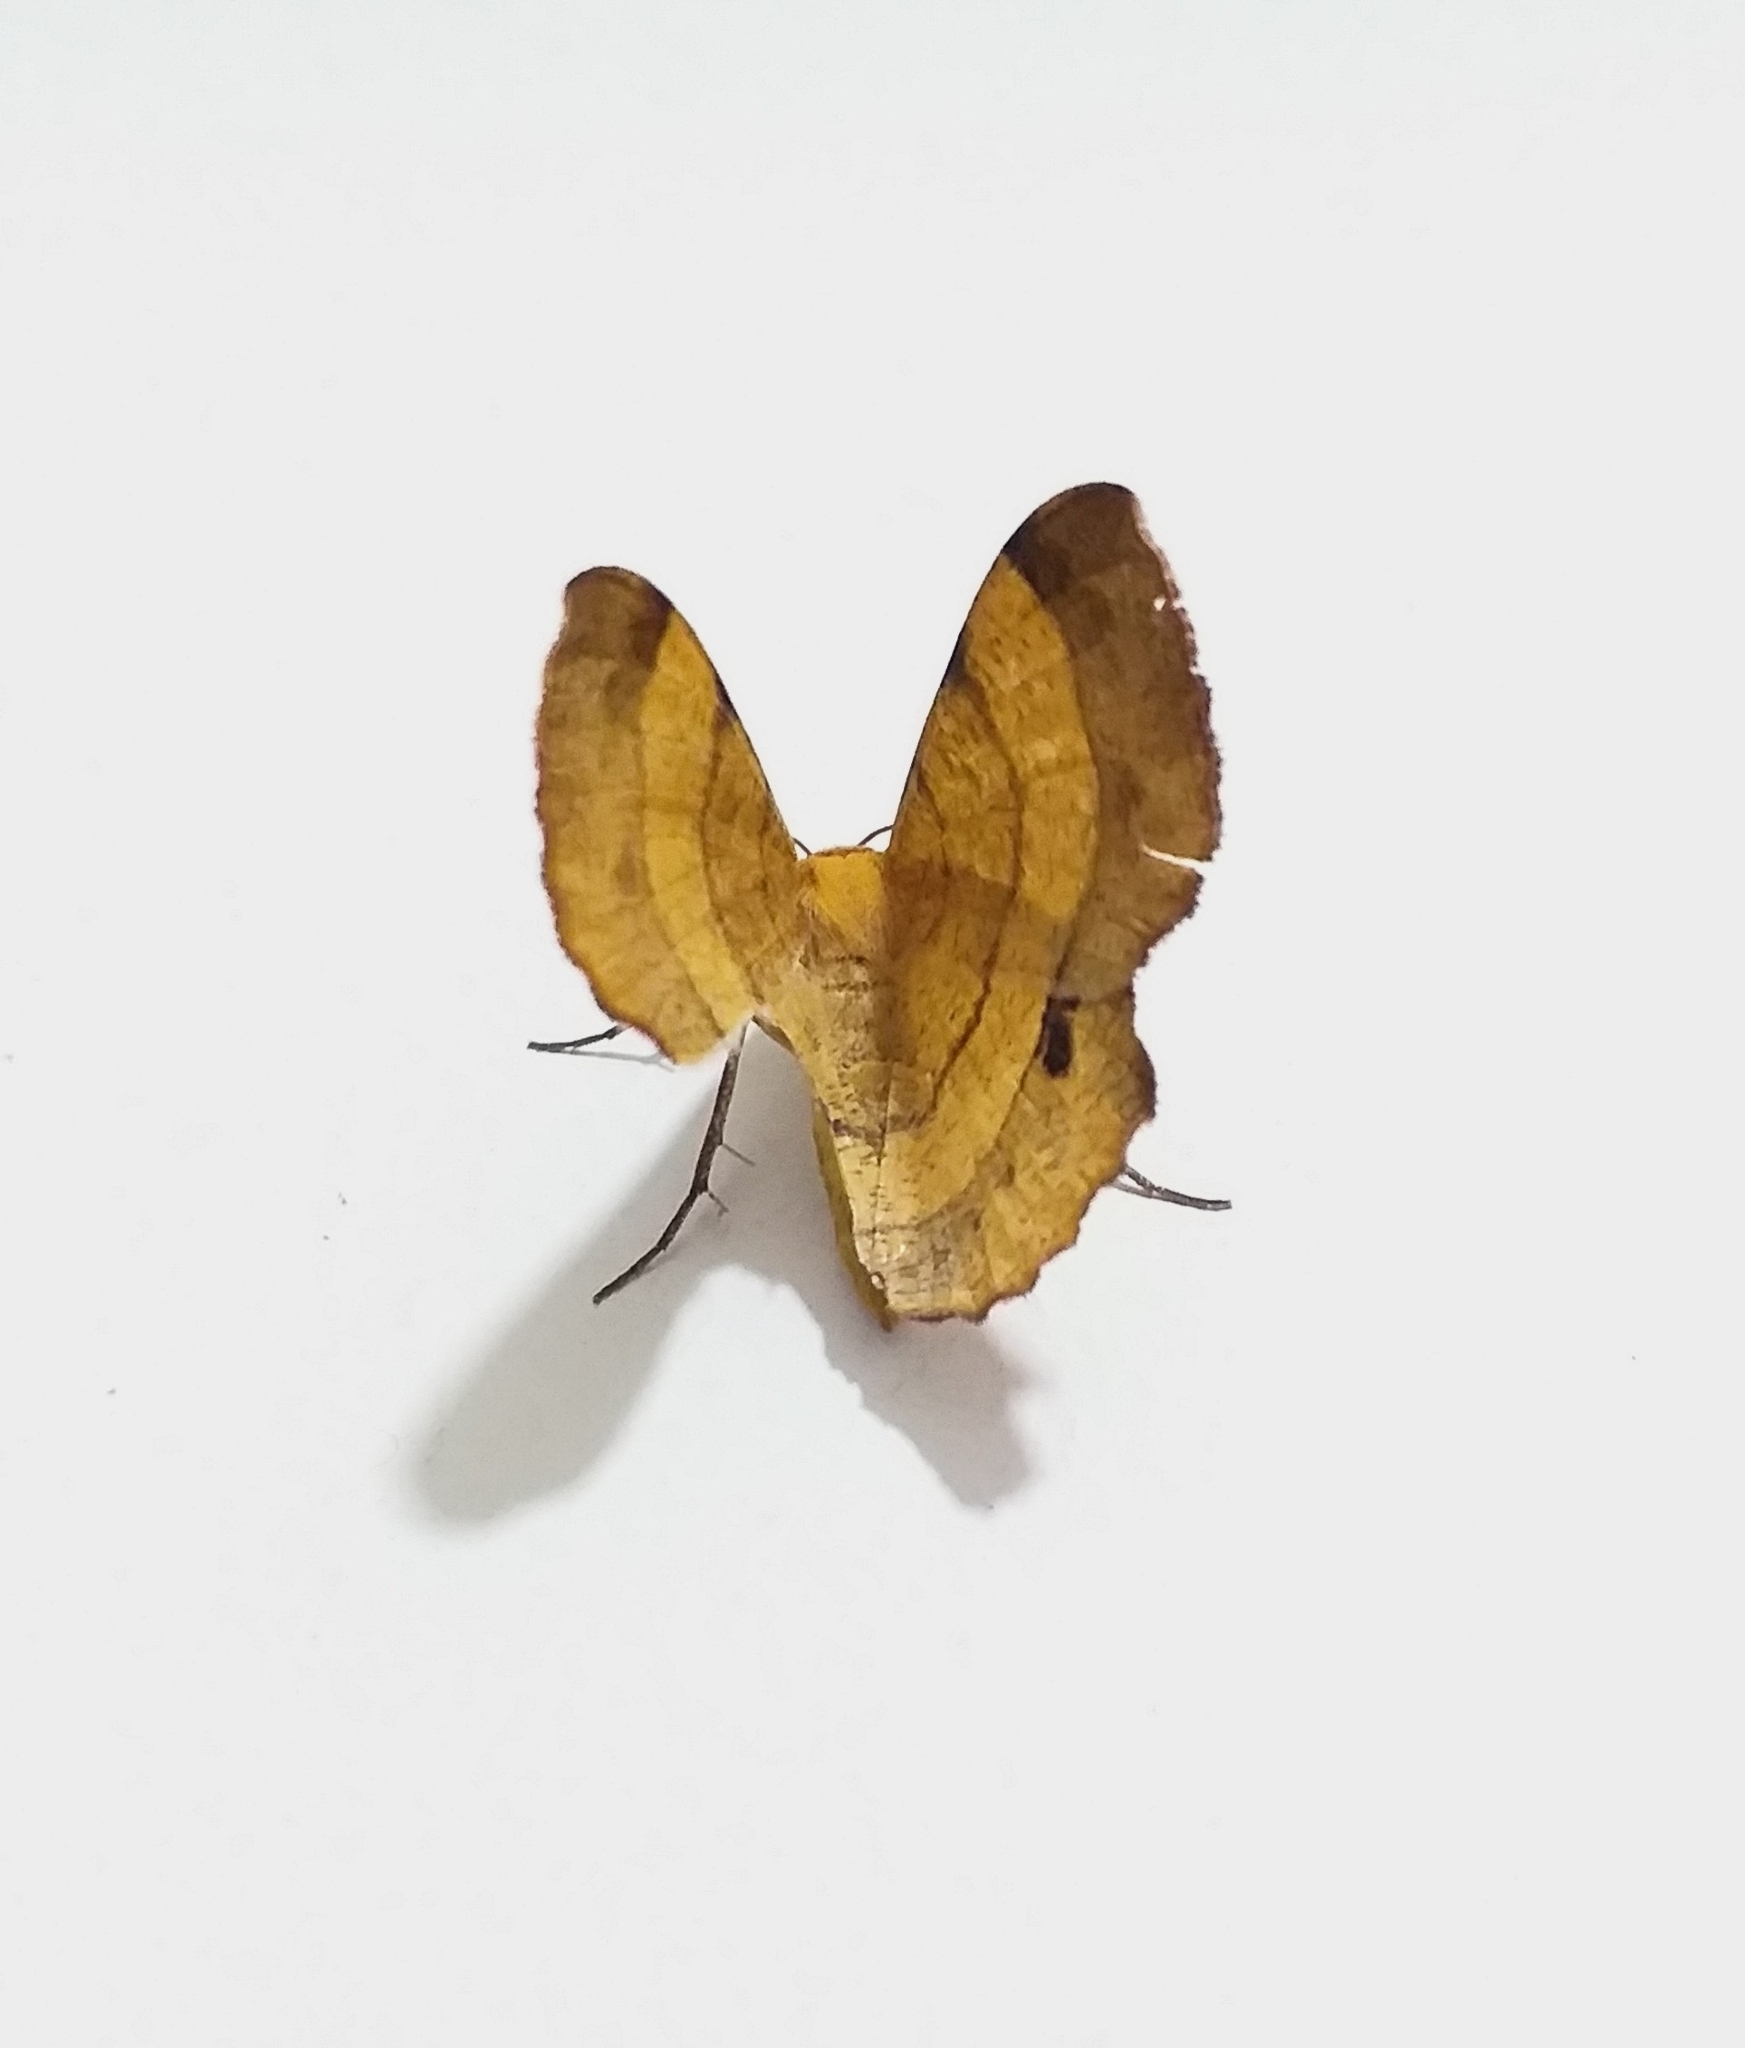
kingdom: Animalia
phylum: Arthropoda
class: Insecta
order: Lepidoptera
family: Geometridae
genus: Hyperythra
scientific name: Hyperythra lutea
